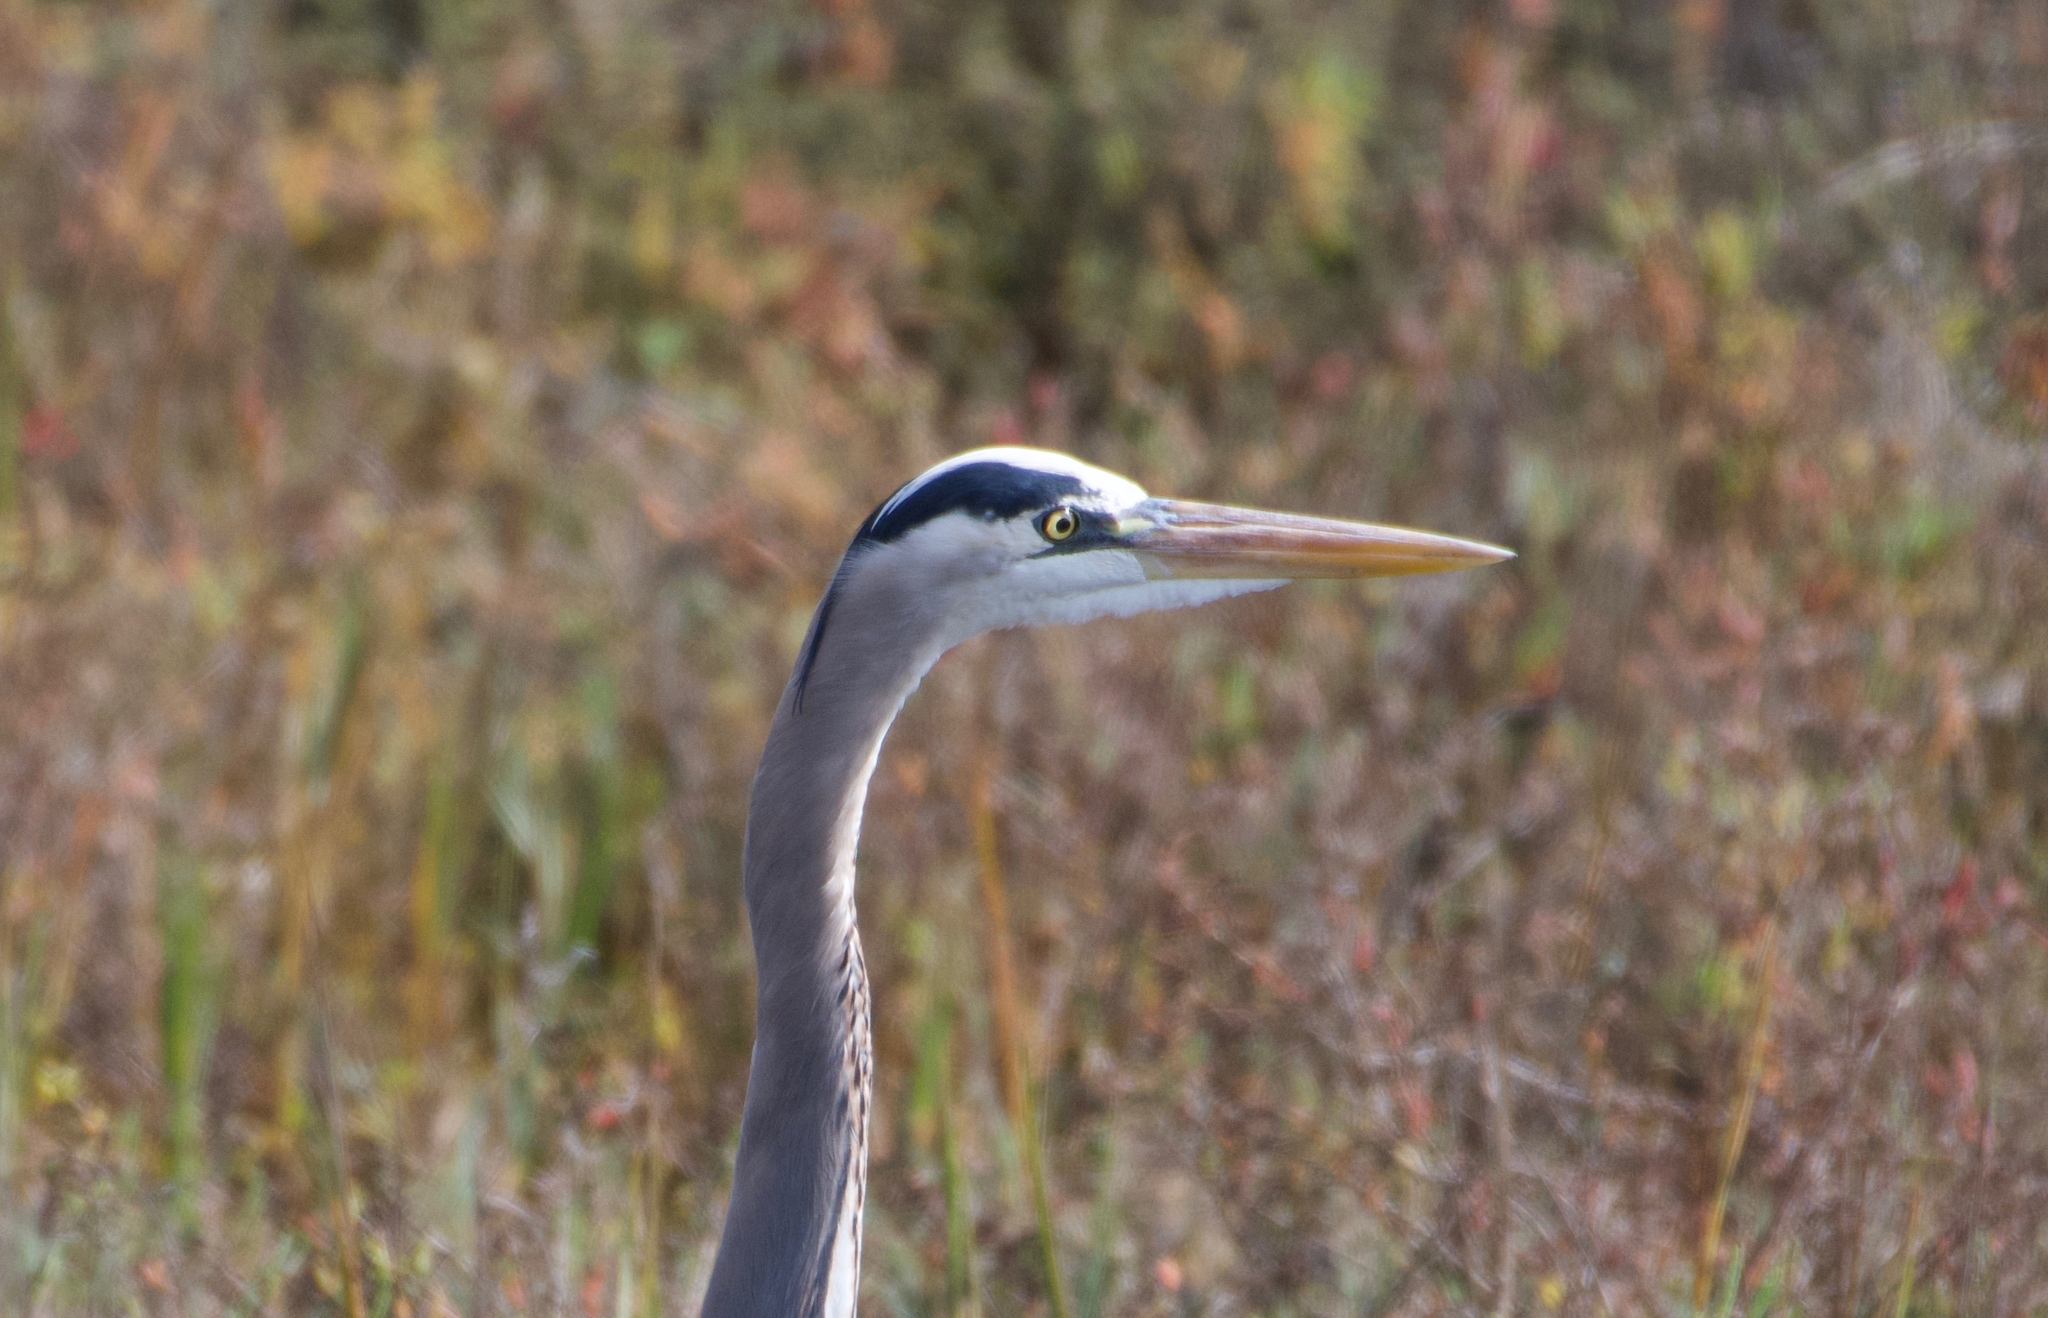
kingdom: Animalia
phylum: Chordata
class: Aves
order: Pelecaniformes
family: Ardeidae
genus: Ardea
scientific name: Ardea herodias
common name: Great blue heron
